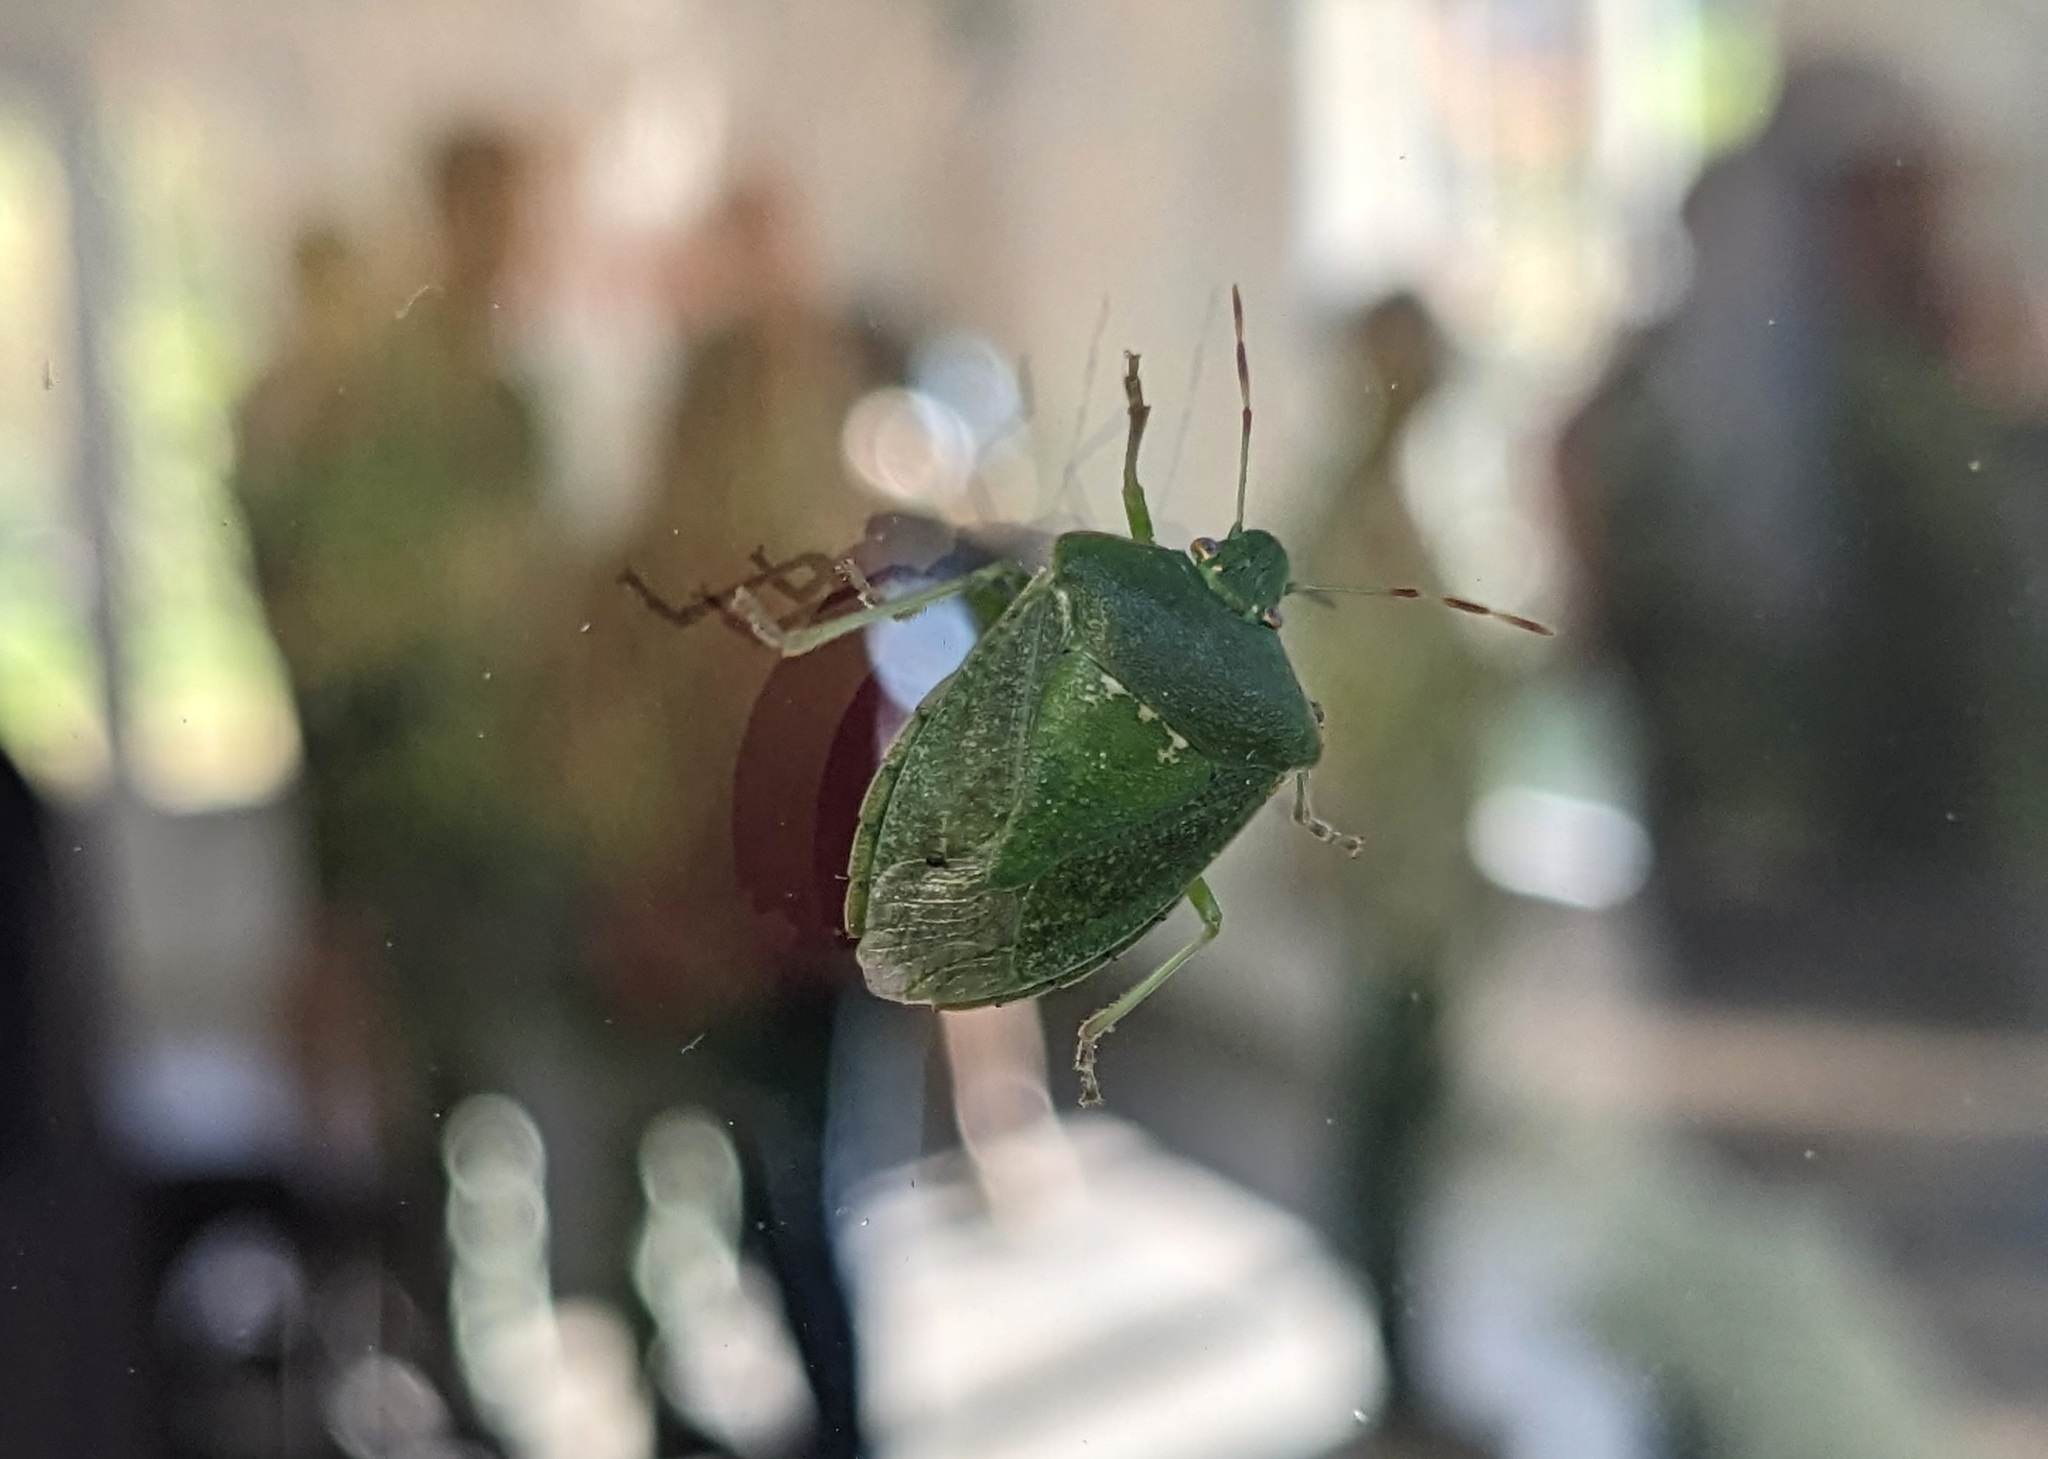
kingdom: Animalia
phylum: Arthropoda
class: Insecta
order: Hemiptera
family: Pentatomidae
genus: Nezara
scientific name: Nezara viridula
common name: Southern green stink bug
